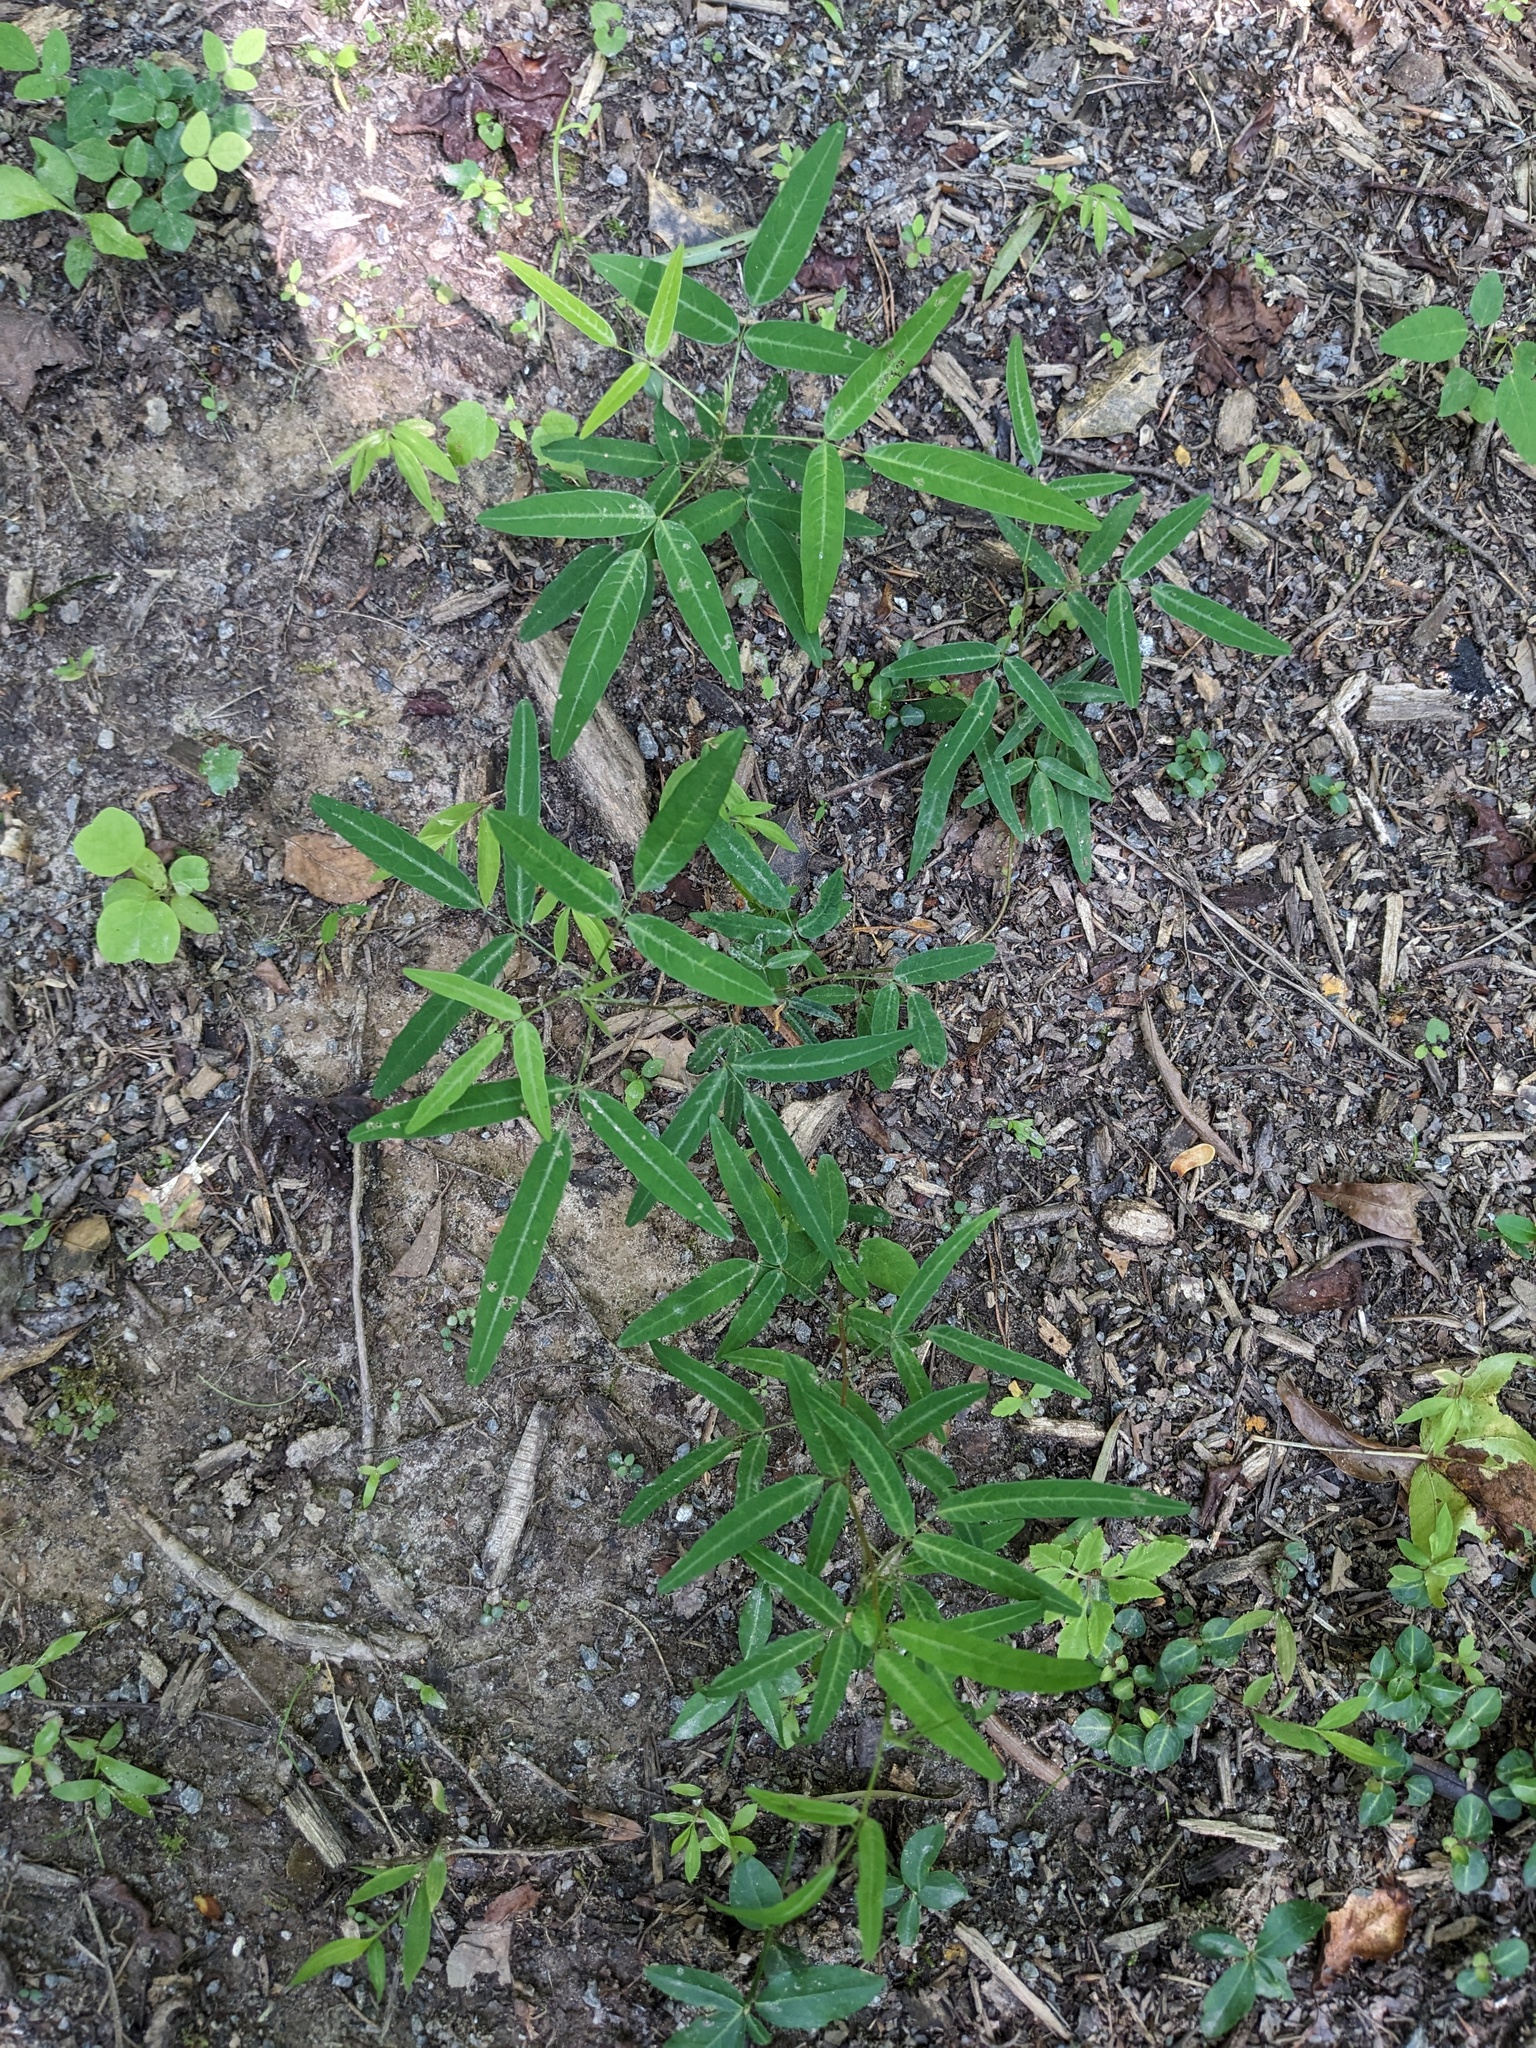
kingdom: Plantae
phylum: Tracheophyta
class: Magnoliopsida
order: Fabales
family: Fabaceae
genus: Desmodium
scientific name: Desmodium paniculatum
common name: Panicled tick-clover
